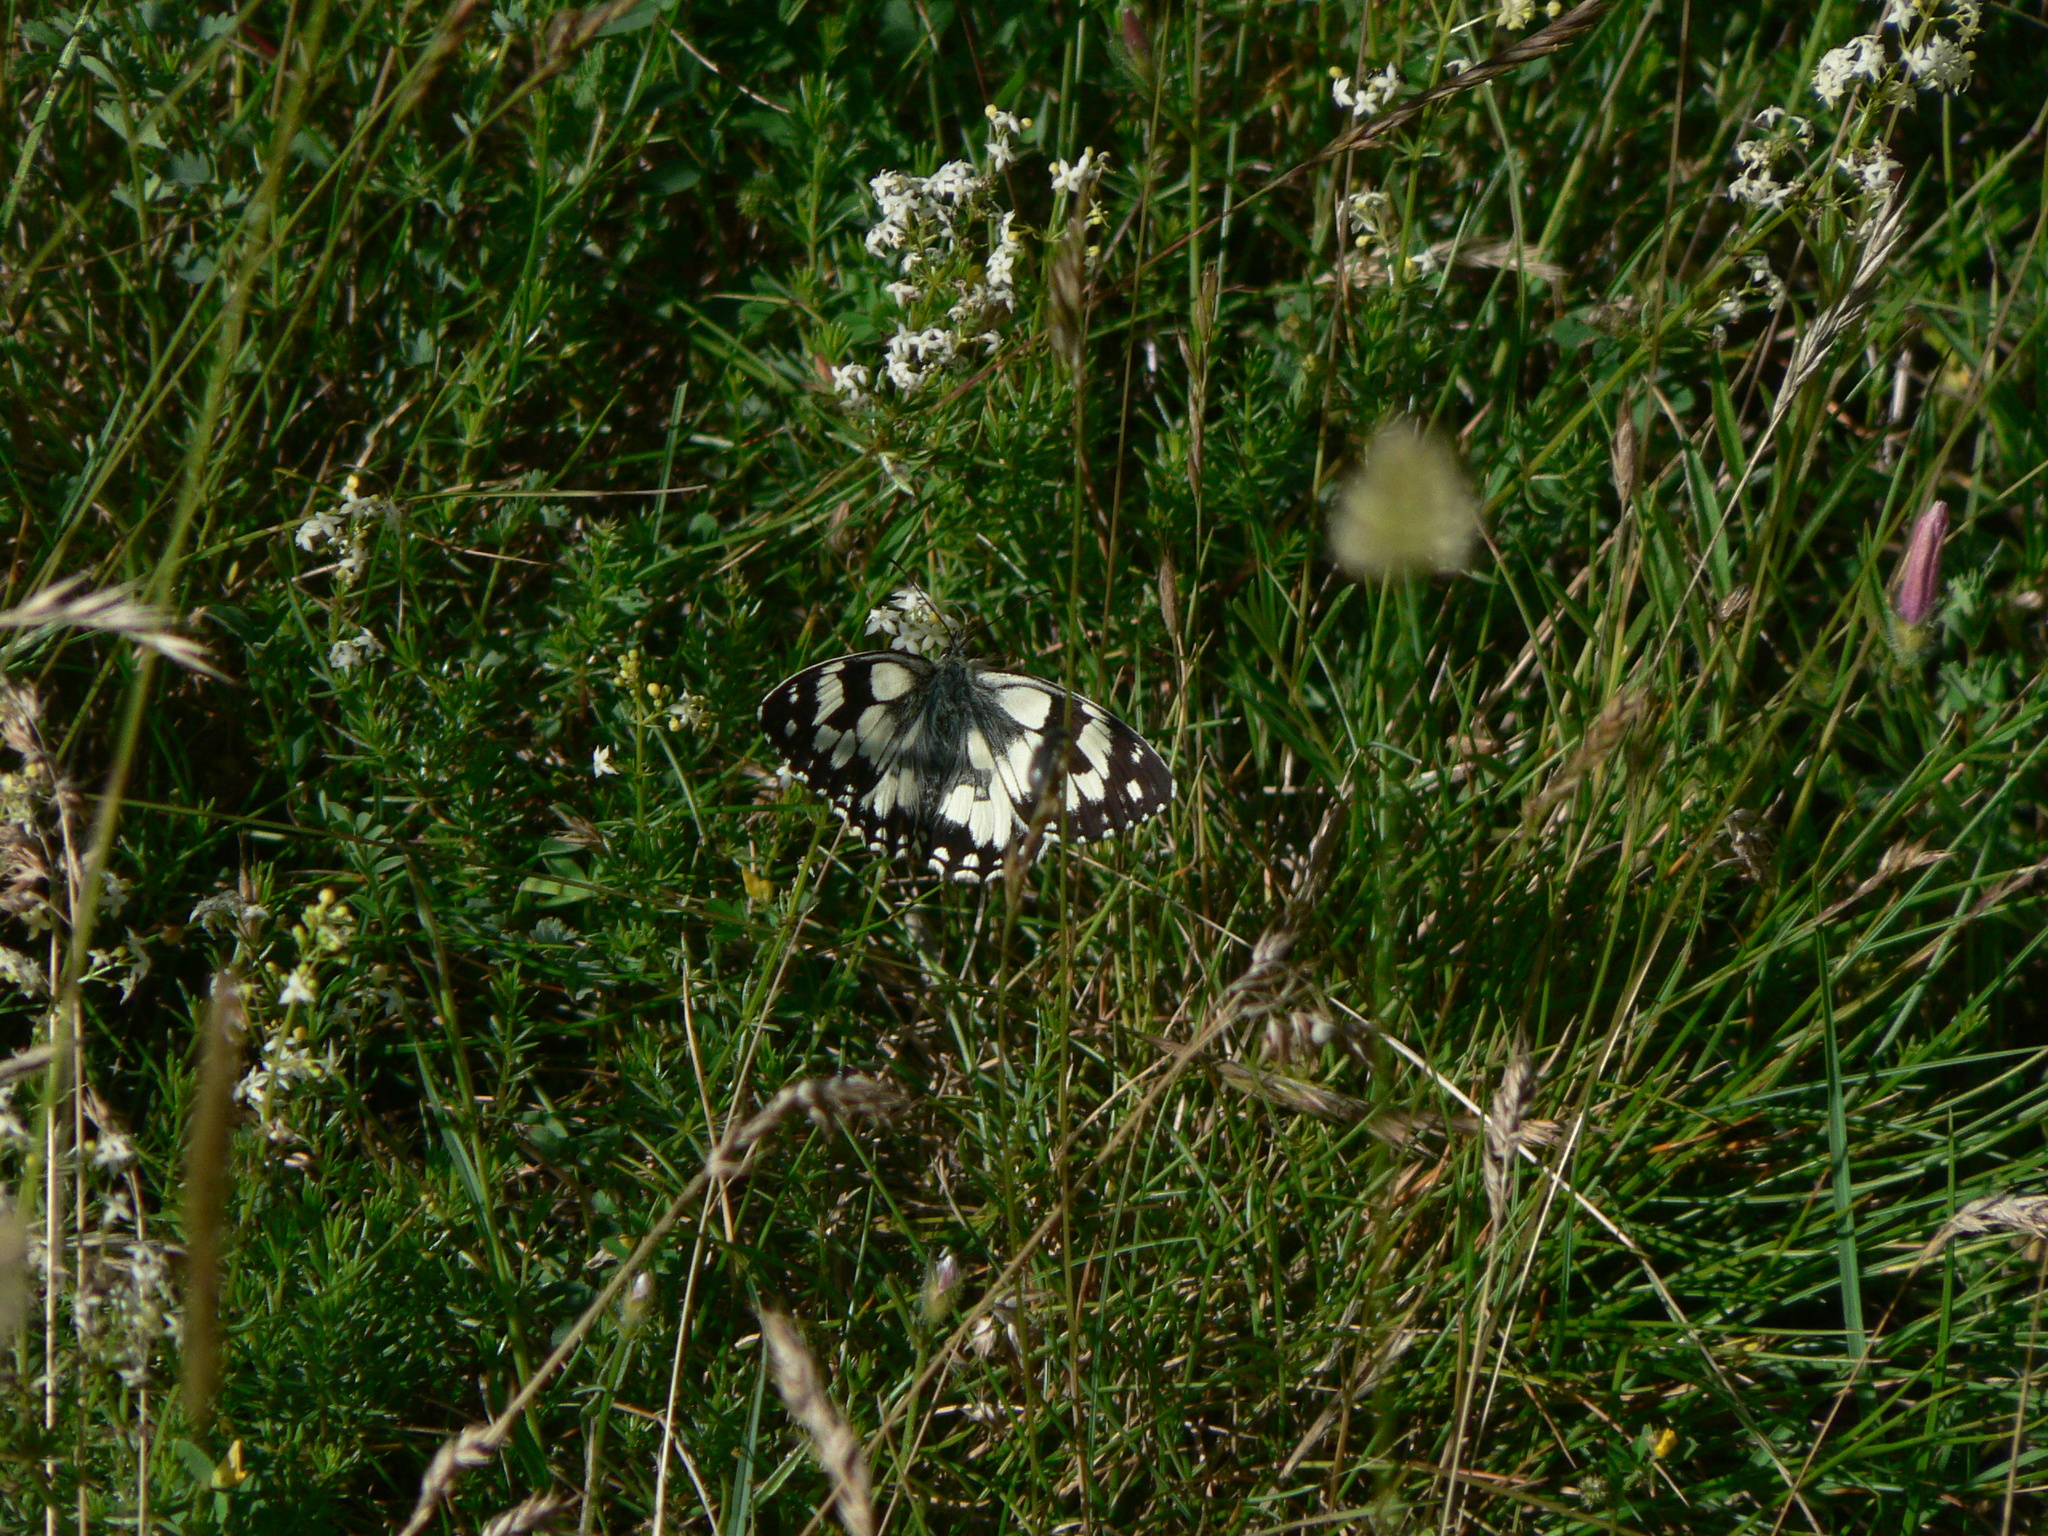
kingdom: Animalia
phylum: Arthropoda
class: Insecta
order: Lepidoptera
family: Nymphalidae
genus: Melanargia
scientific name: Melanargia galathea
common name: Marbled white
